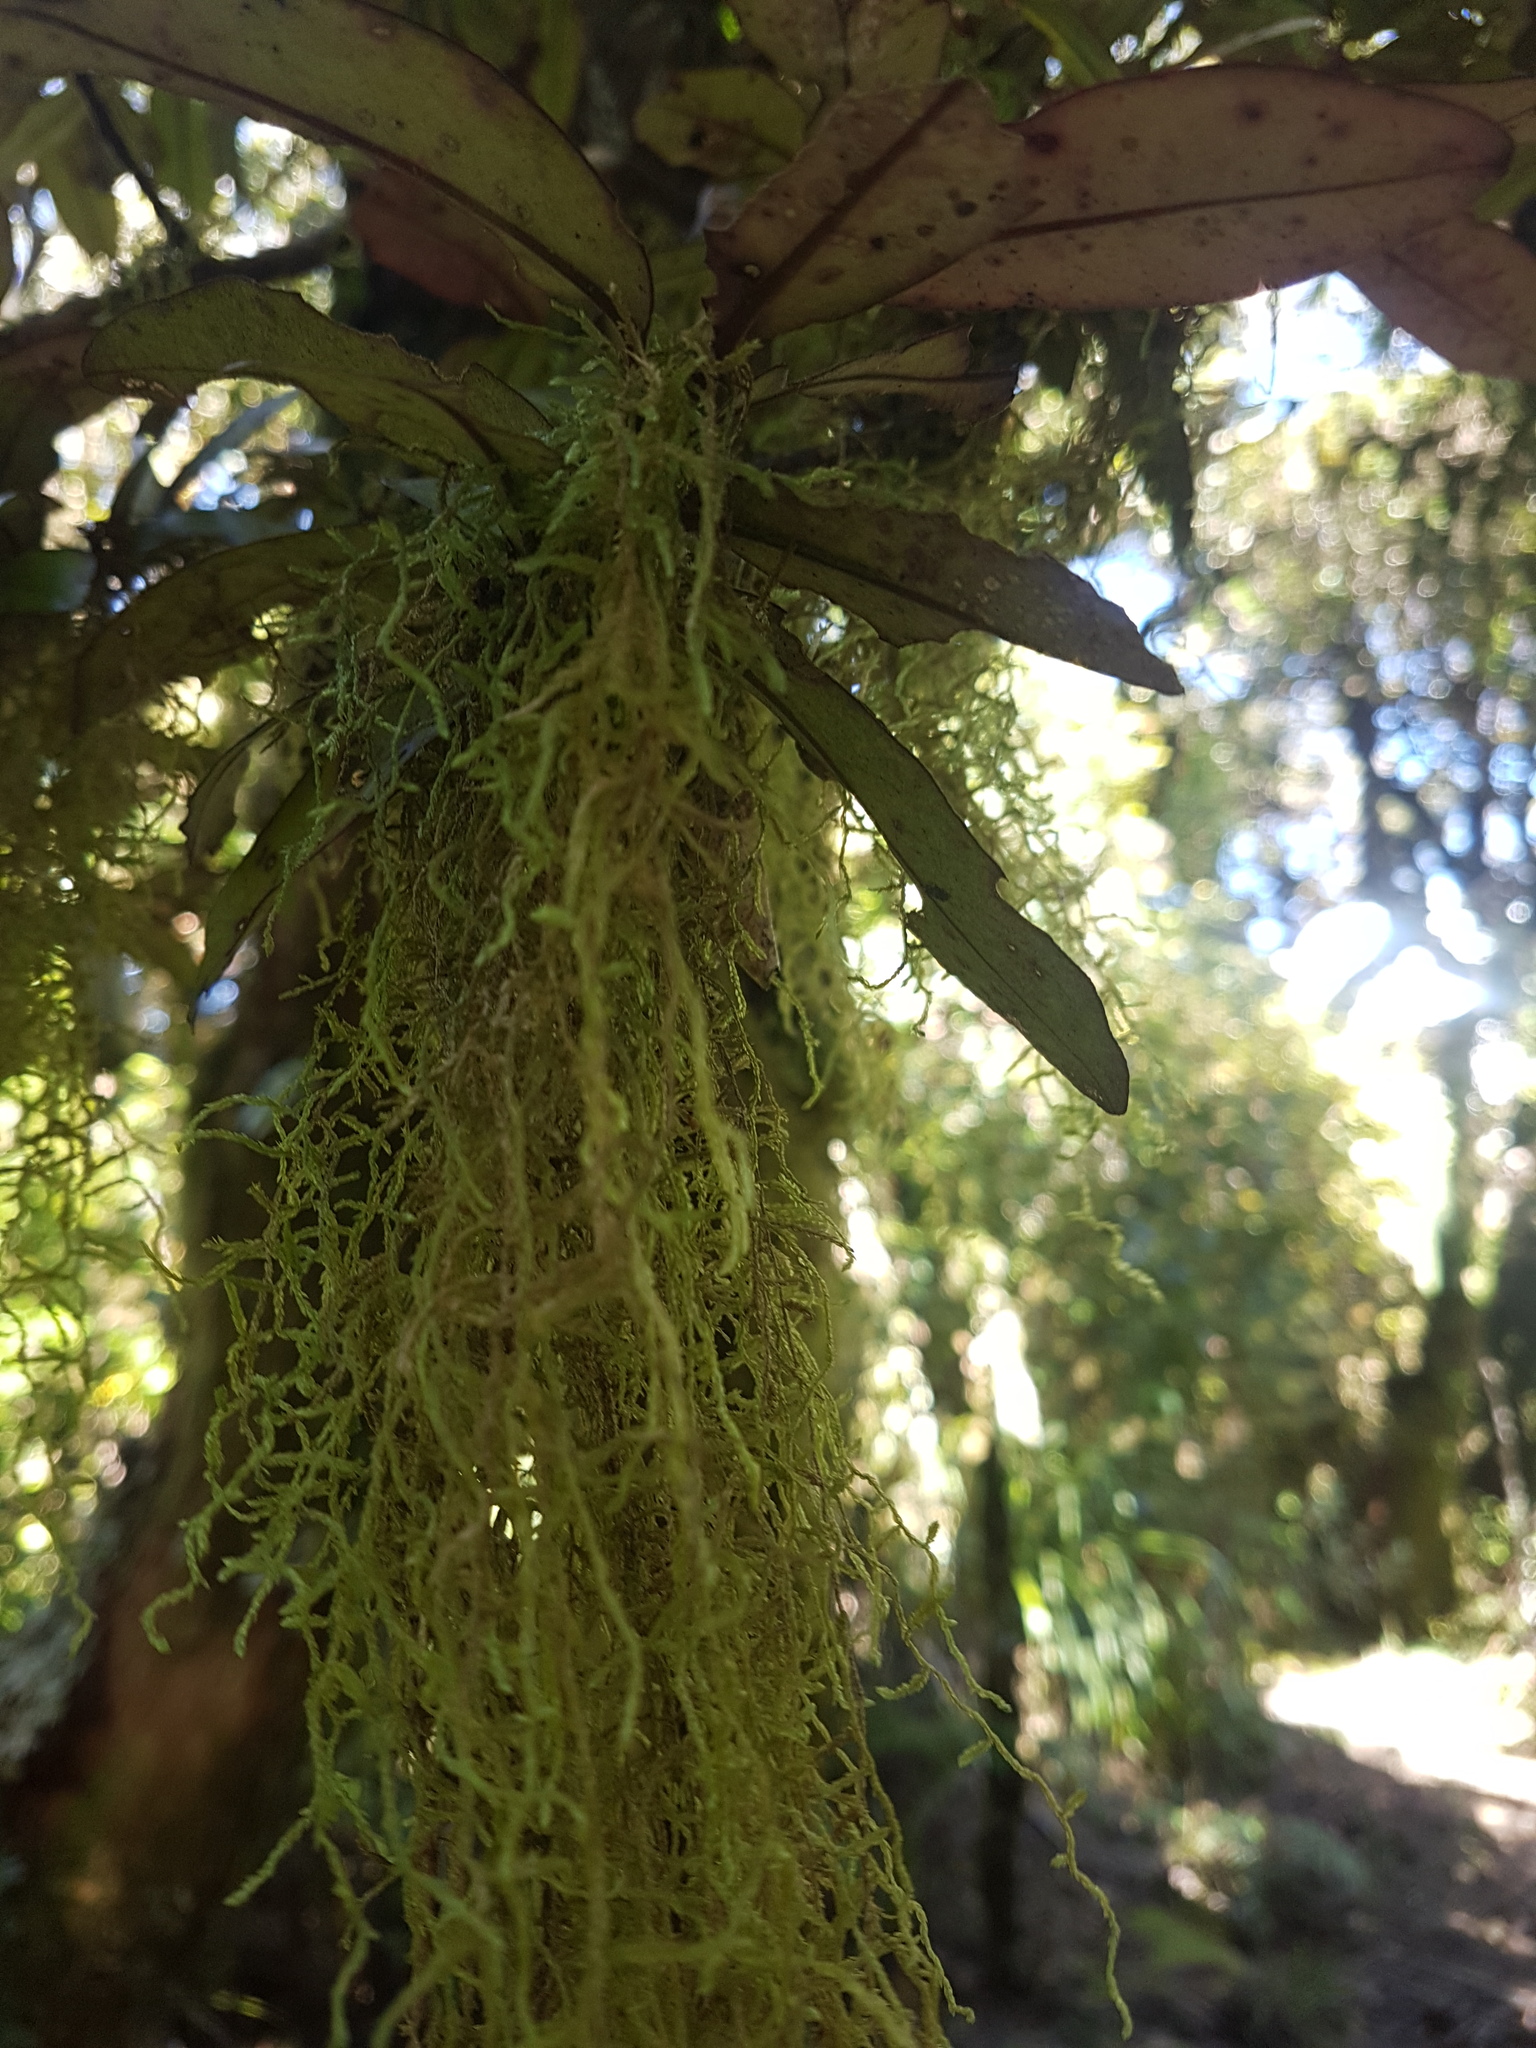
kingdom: Plantae
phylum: Bryophyta
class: Bryopsida
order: Hypnales
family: Lembophyllaceae
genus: Weymouthia
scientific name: Weymouthia mollis
